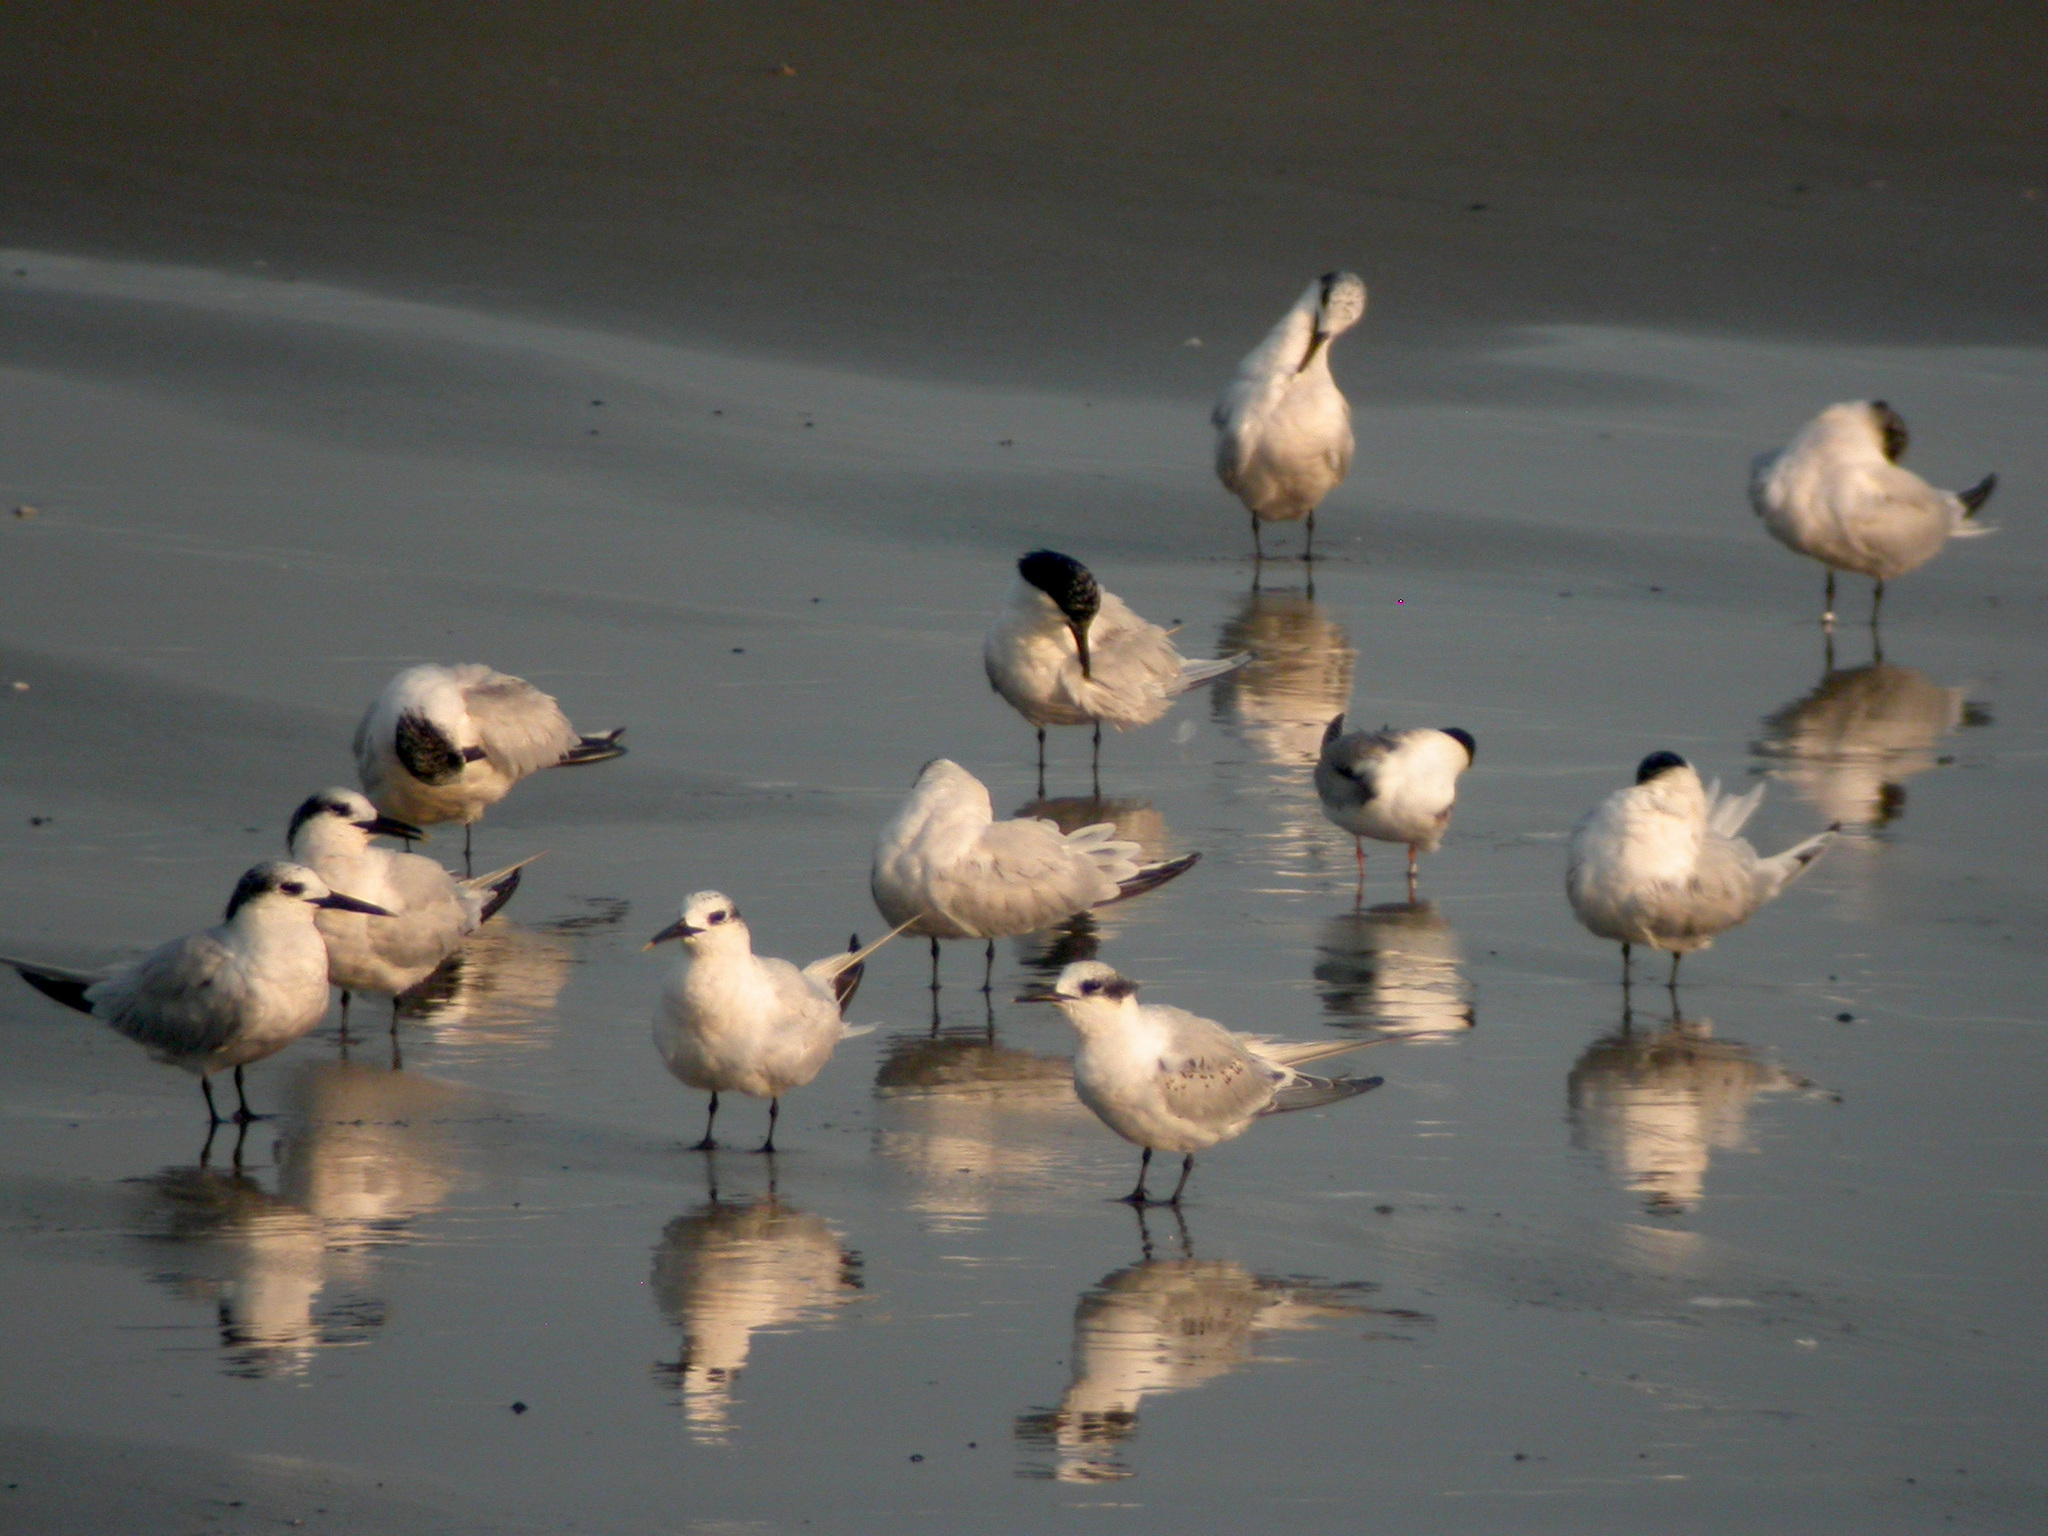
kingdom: Animalia
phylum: Chordata
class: Aves
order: Charadriiformes
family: Laridae
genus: Thalasseus
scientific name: Thalasseus sandvicensis
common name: Sandwich tern
